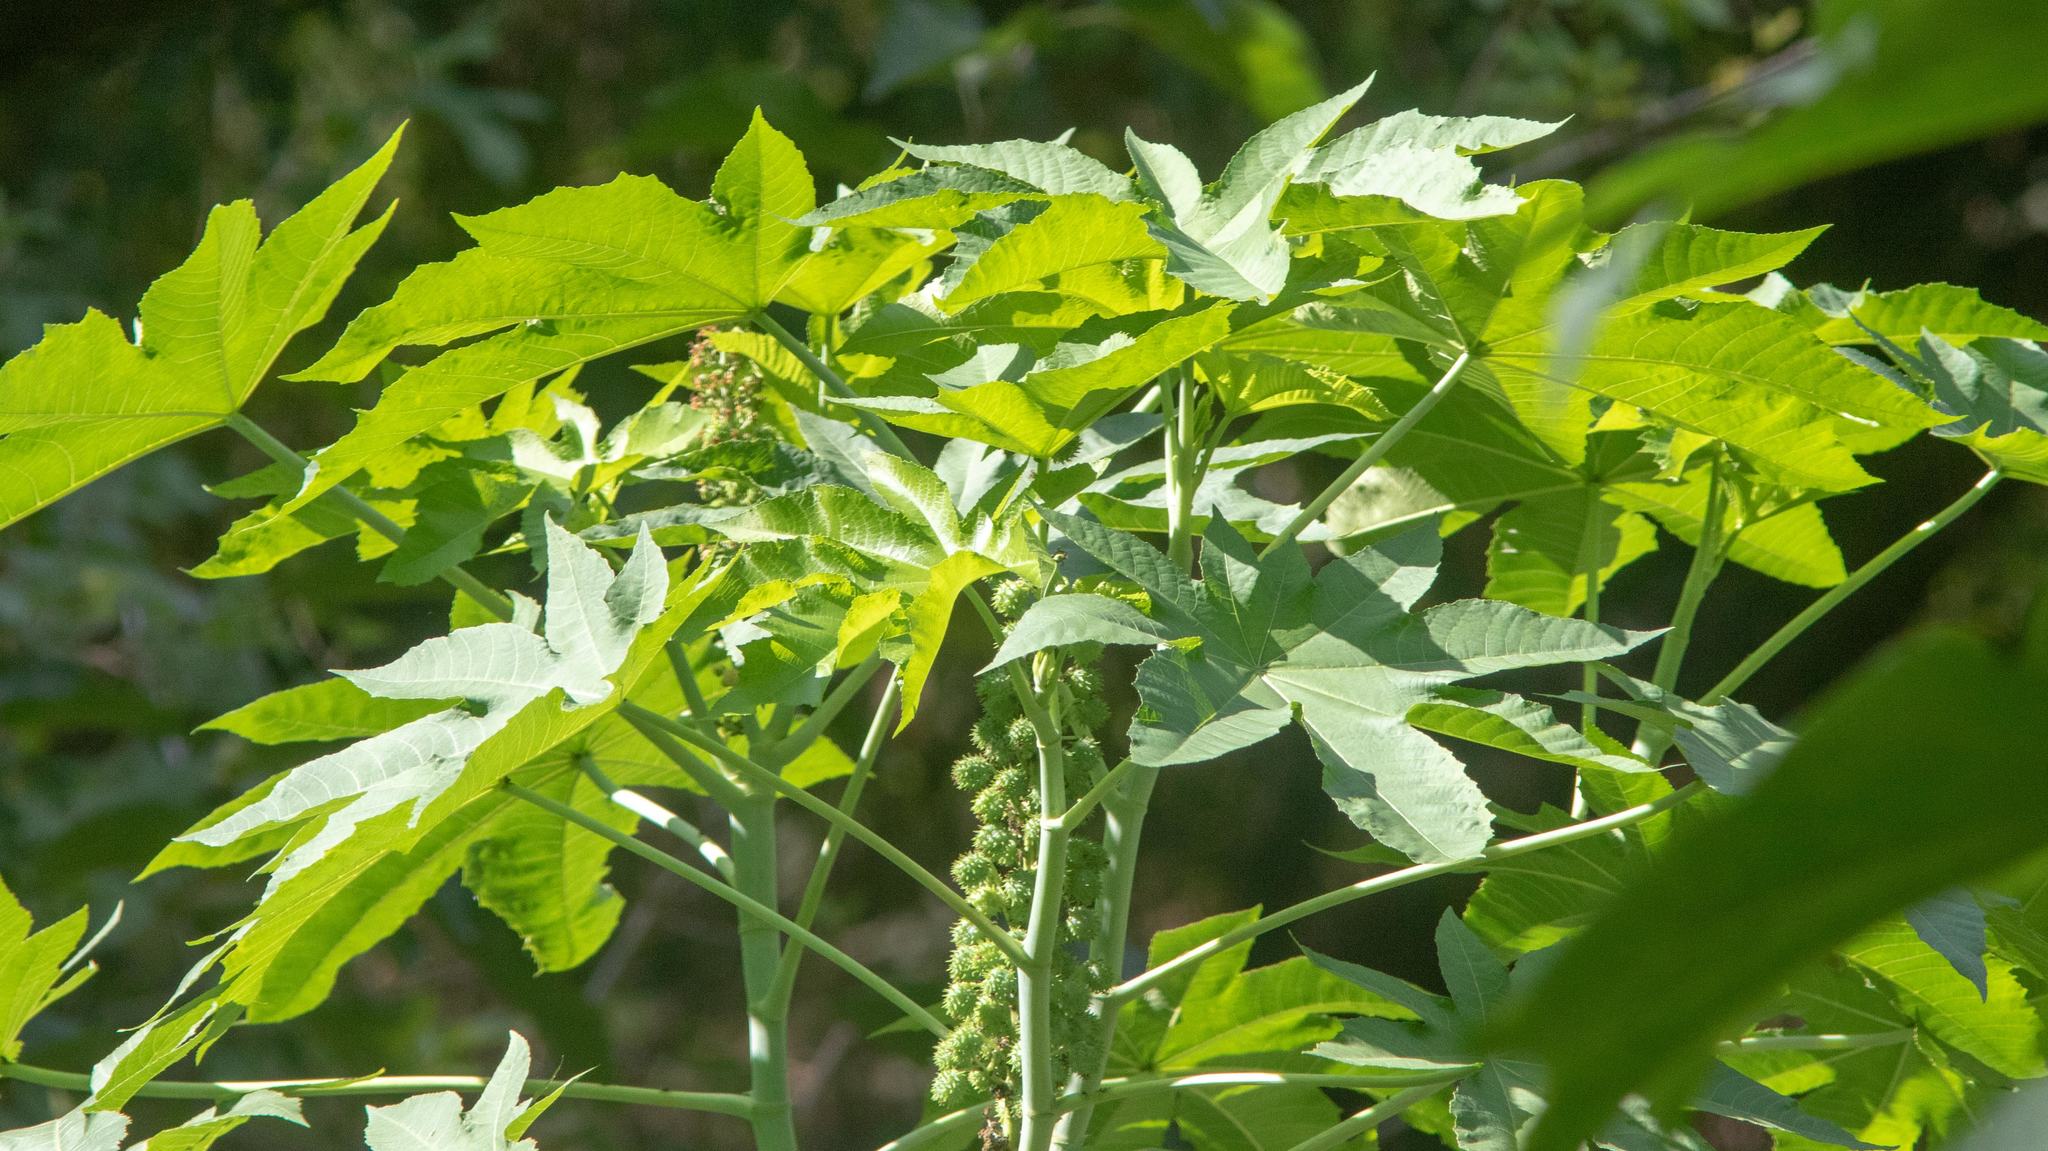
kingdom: Plantae
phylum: Tracheophyta
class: Magnoliopsida
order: Malpighiales
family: Euphorbiaceae
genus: Ricinus
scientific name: Ricinus communis
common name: Castor-oil-plant
